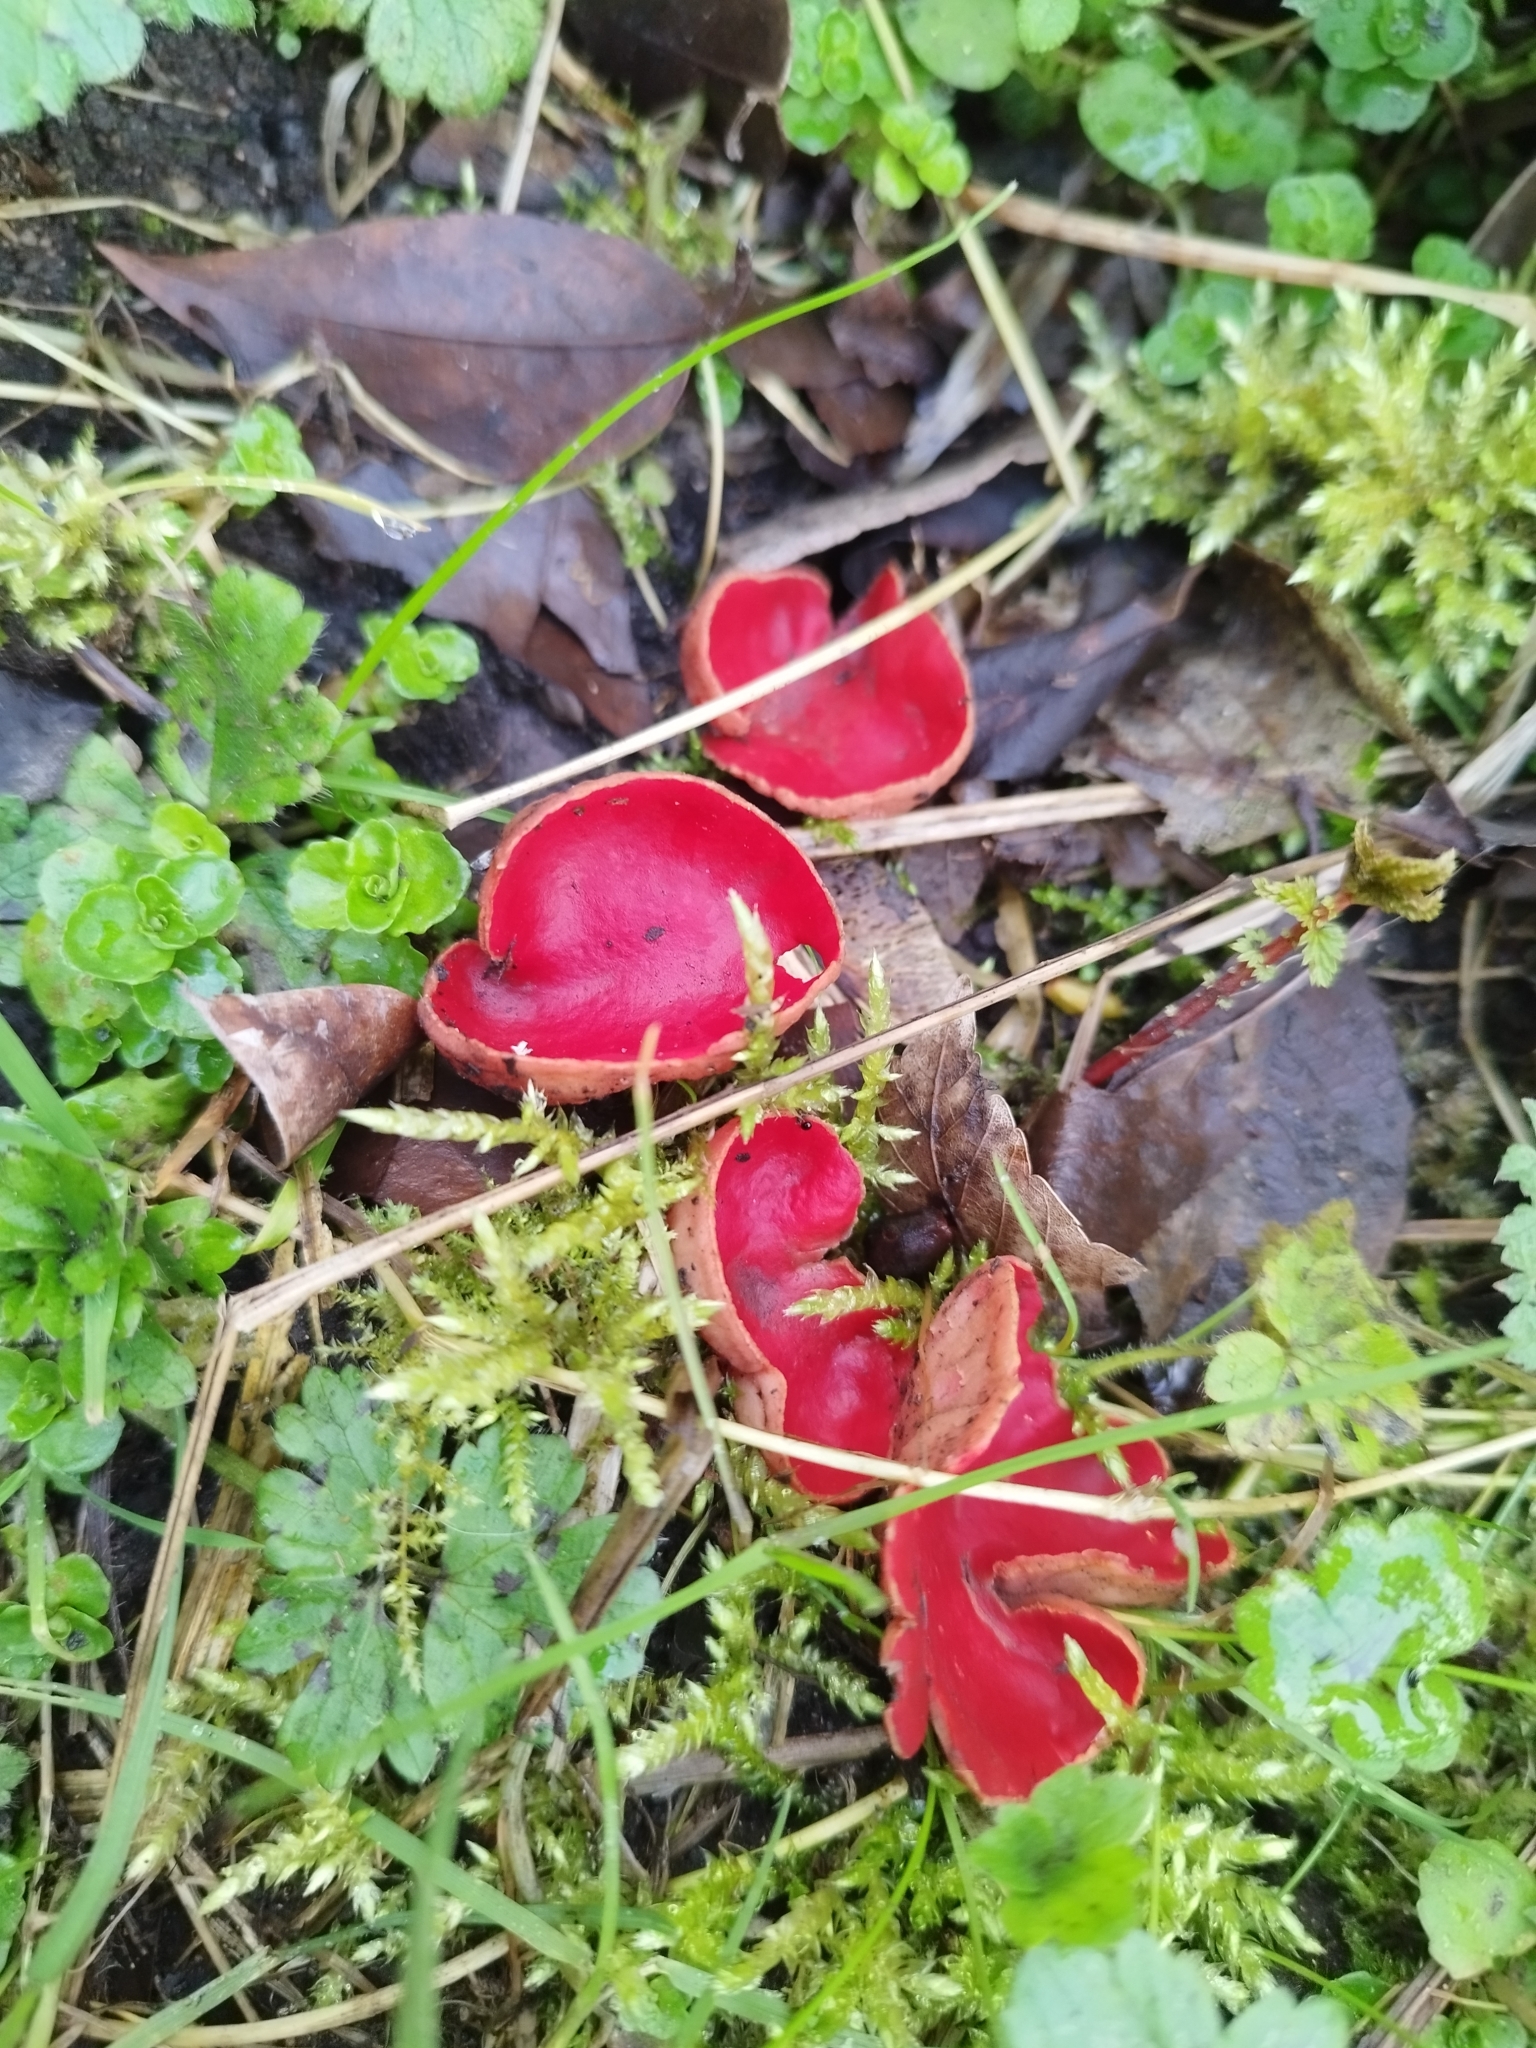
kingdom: Fungi
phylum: Ascomycota
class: Pezizomycetes
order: Pezizales
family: Sarcoscyphaceae
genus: Sarcoscypha
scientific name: Sarcoscypha
